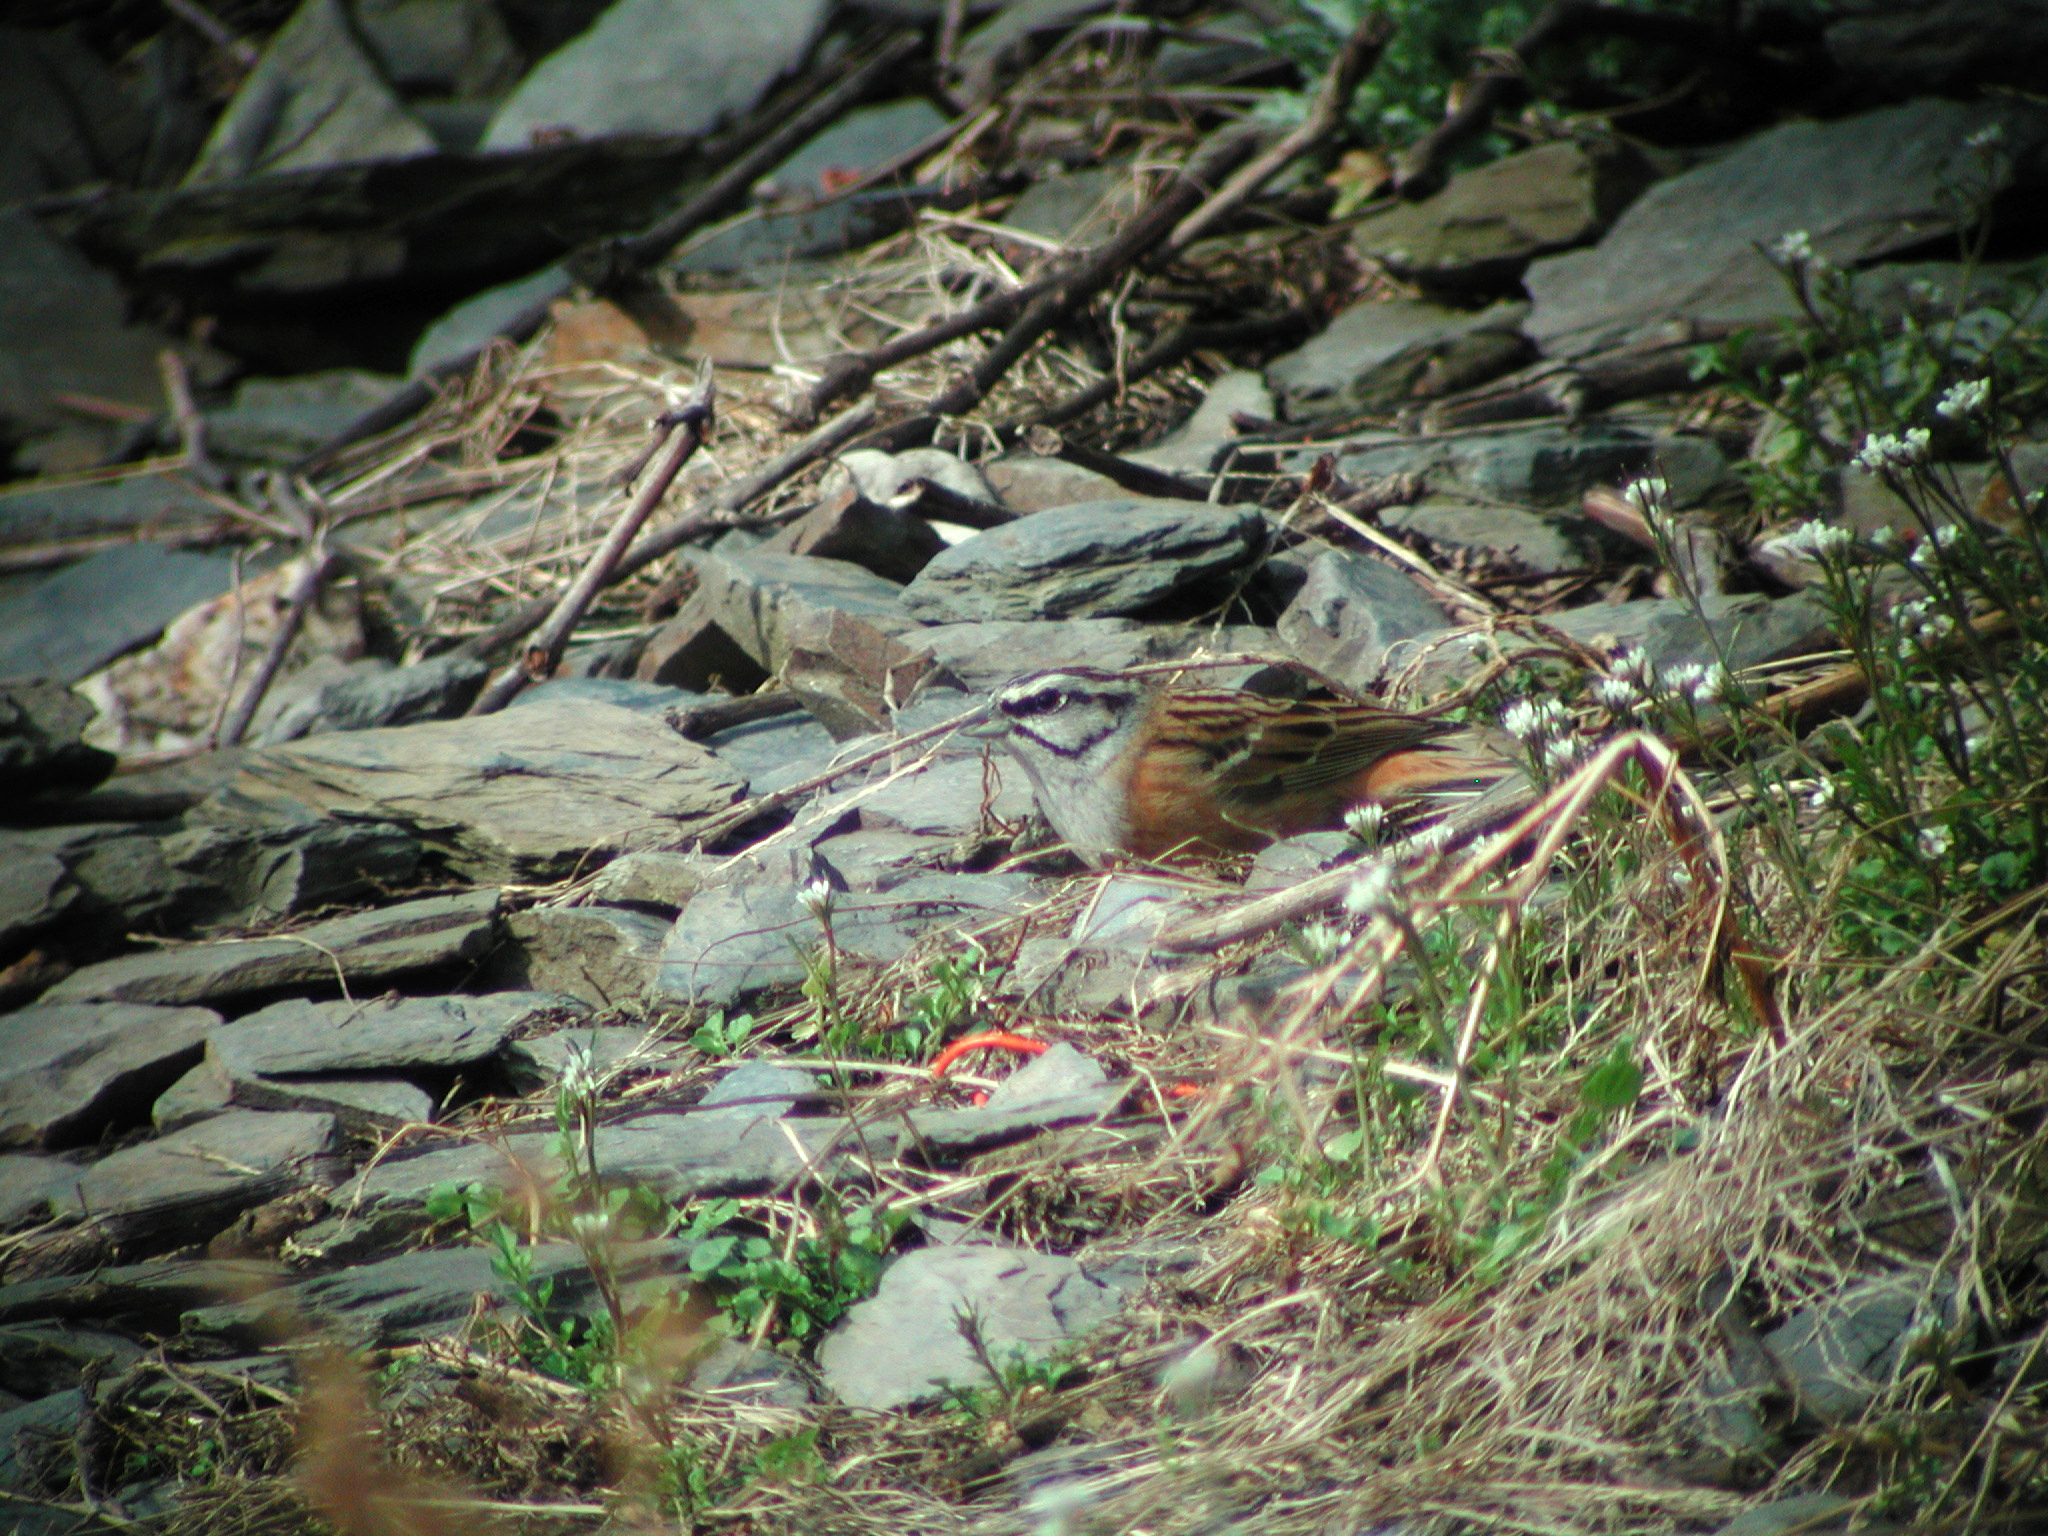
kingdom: Animalia
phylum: Chordata
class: Aves
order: Passeriformes
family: Emberizidae
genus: Emberiza
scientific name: Emberiza cia
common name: Rock bunting
